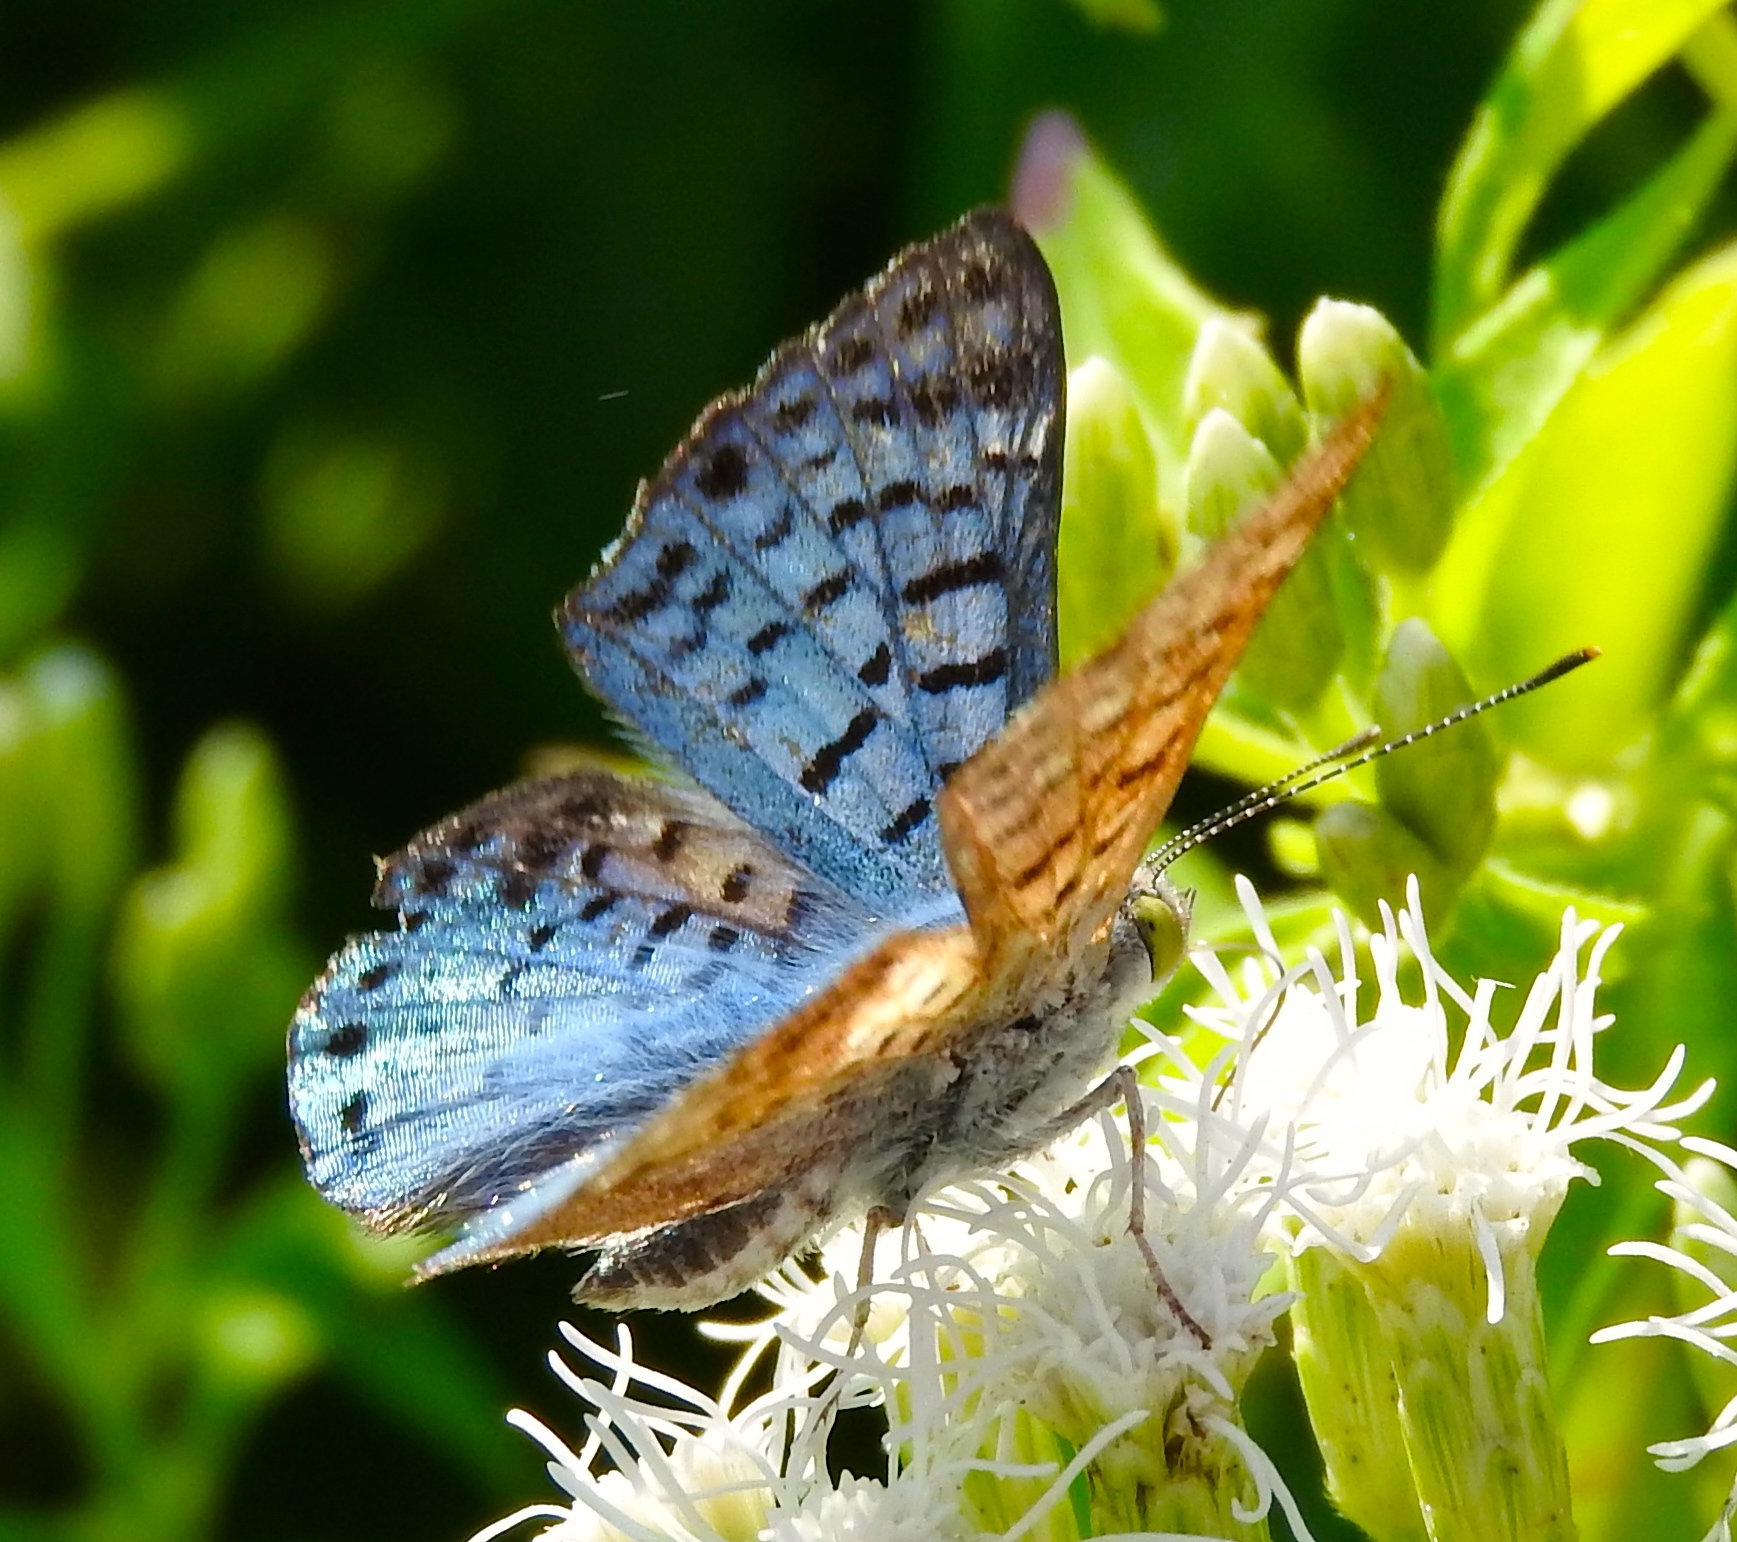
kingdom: Animalia
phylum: Arthropoda
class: Insecta
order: Lepidoptera
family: Riodinidae
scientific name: Riodinidae
